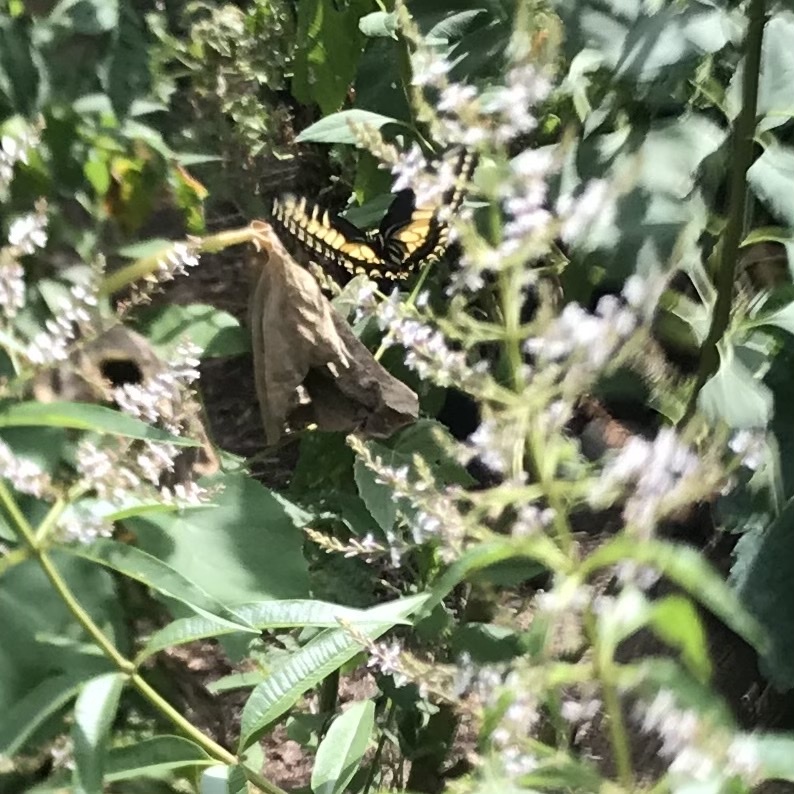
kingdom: Animalia
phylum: Arthropoda
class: Insecta
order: Lepidoptera
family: Papilionidae
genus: Papilio
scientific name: Papilio zelicaon
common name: Anise swallowtail
